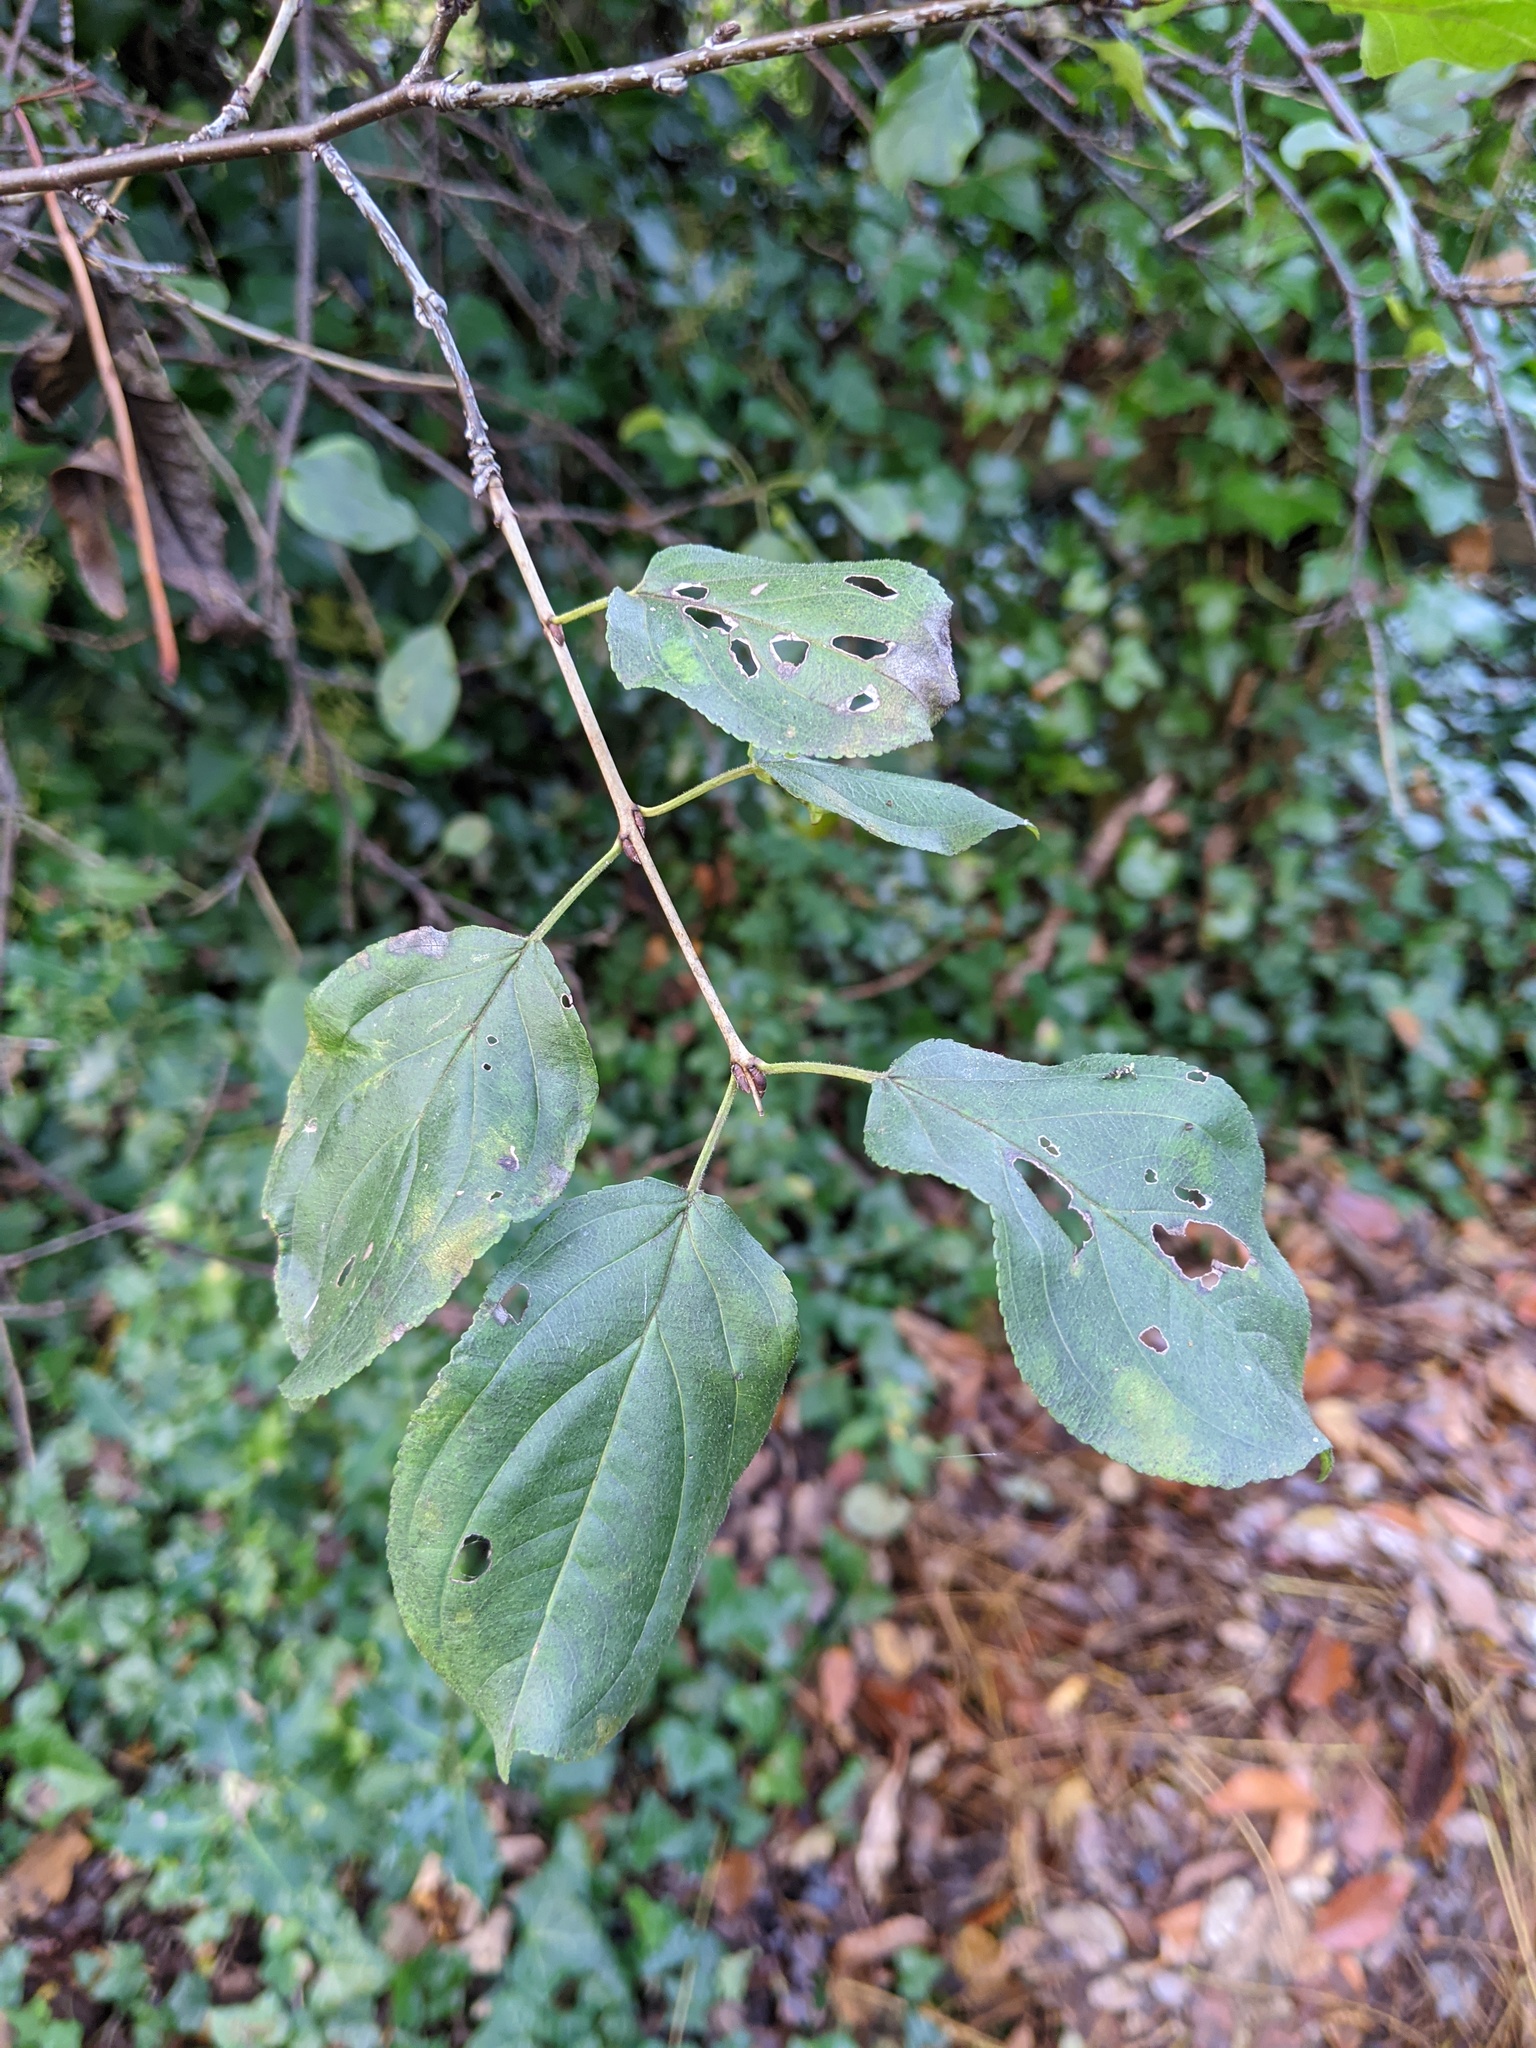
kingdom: Plantae
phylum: Tracheophyta
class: Magnoliopsida
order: Rosales
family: Rhamnaceae
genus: Rhamnus
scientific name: Rhamnus cathartica
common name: Common buckthorn
